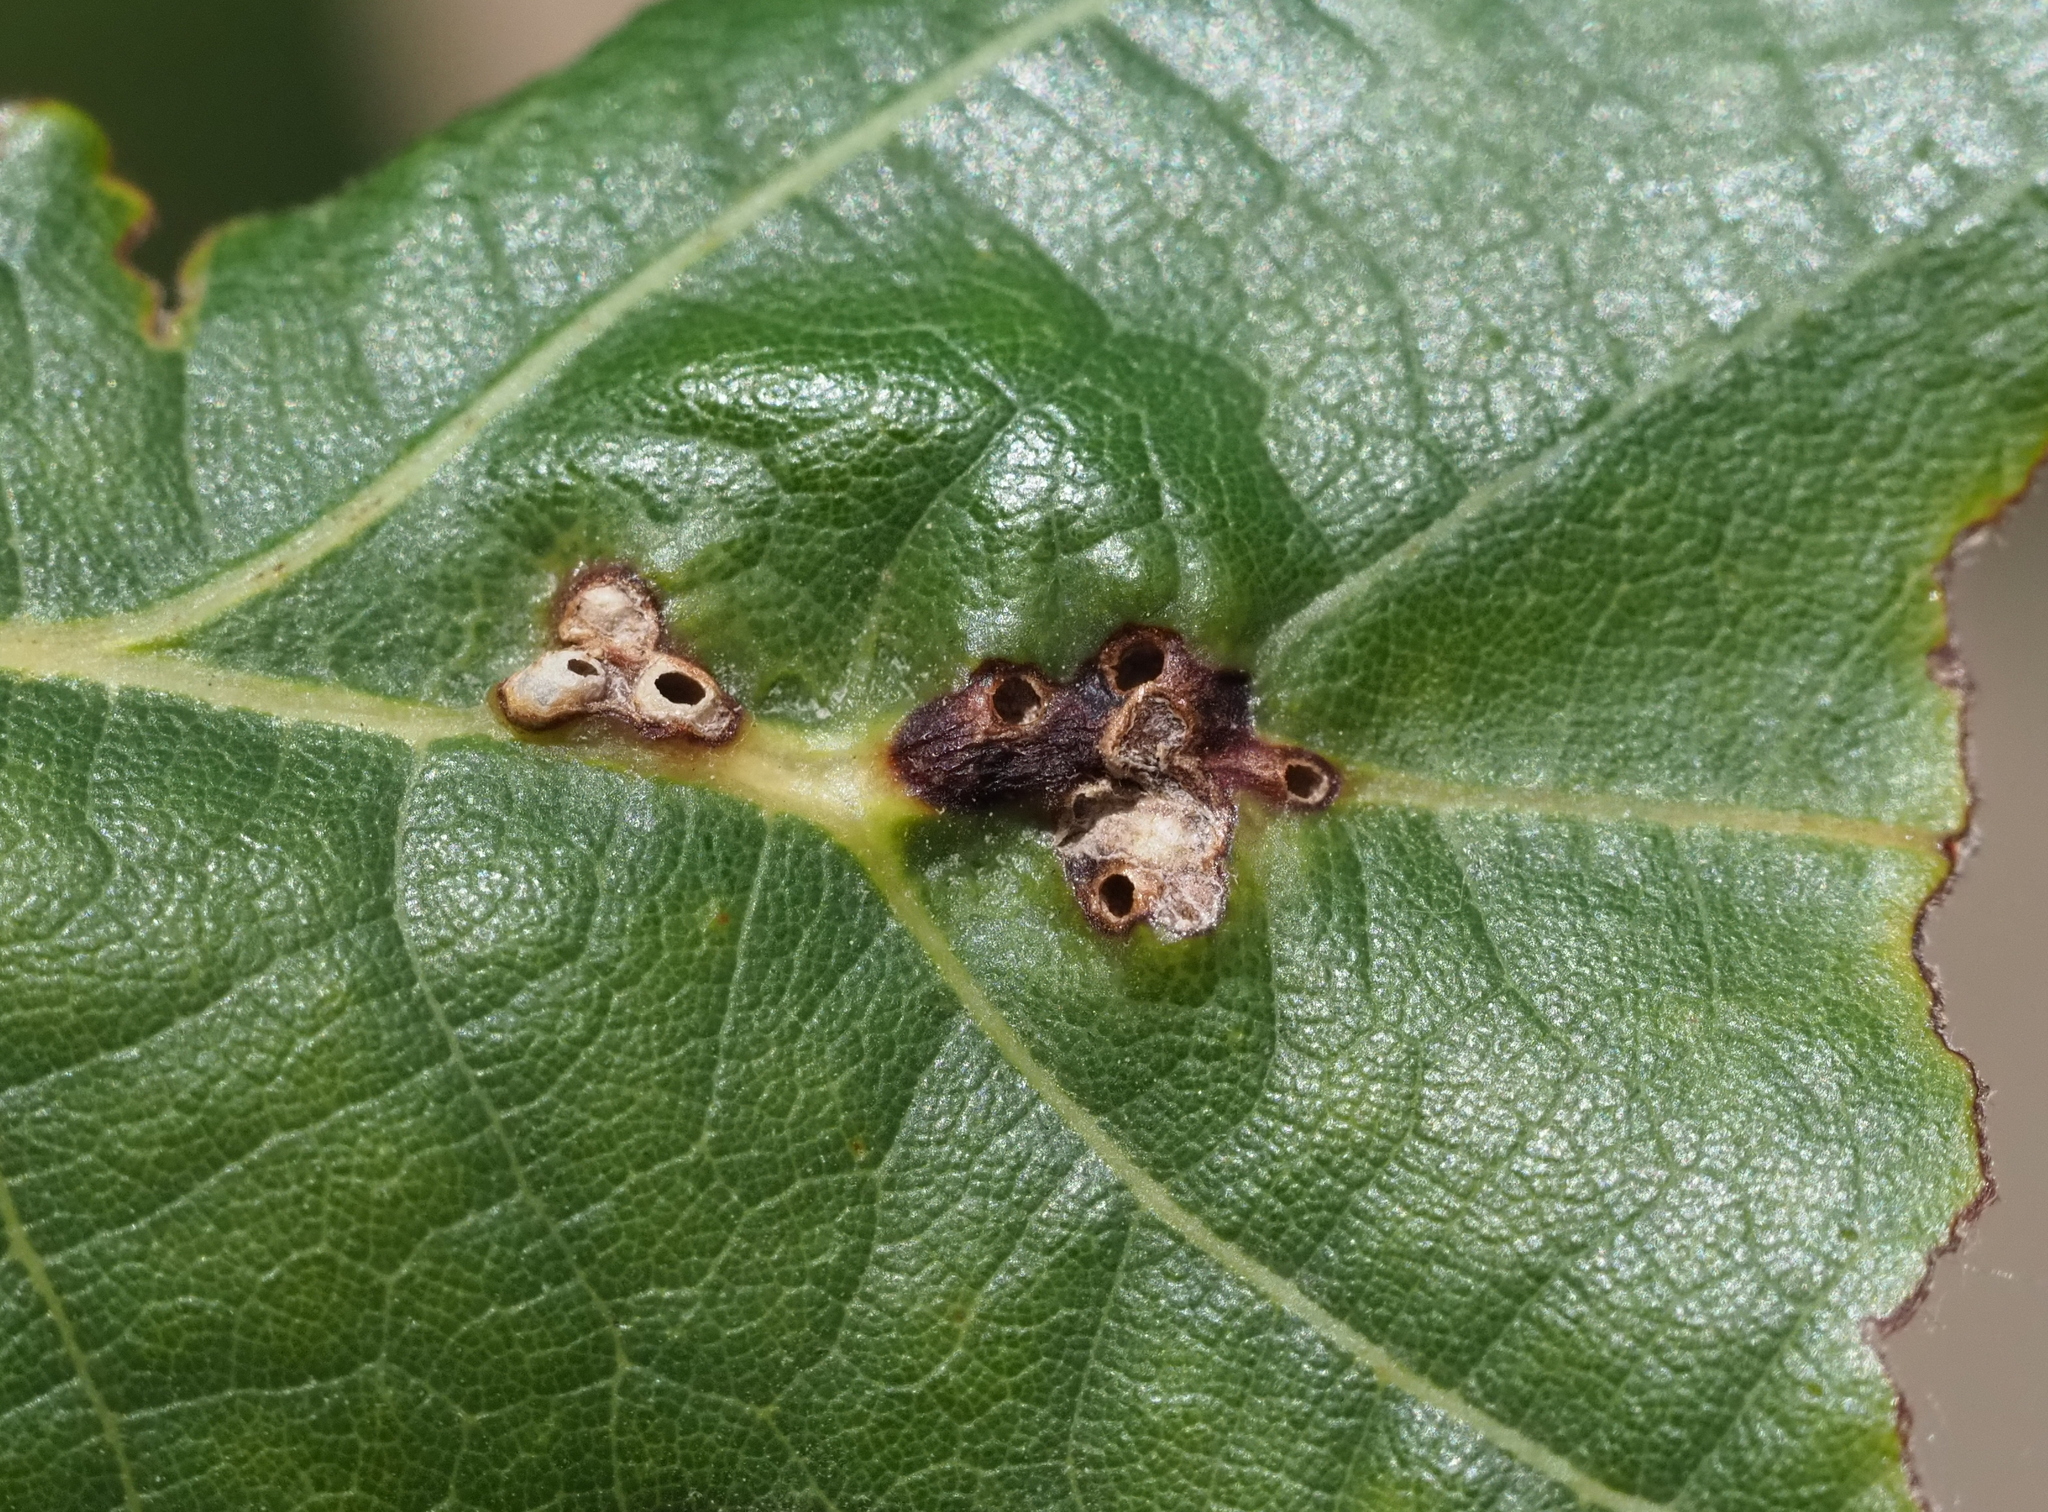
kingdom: Animalia
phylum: Arthropoda
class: Insecta
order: Hymenoptera
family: Cynipidae
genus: Bassettia
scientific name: Bassettia flavipes
